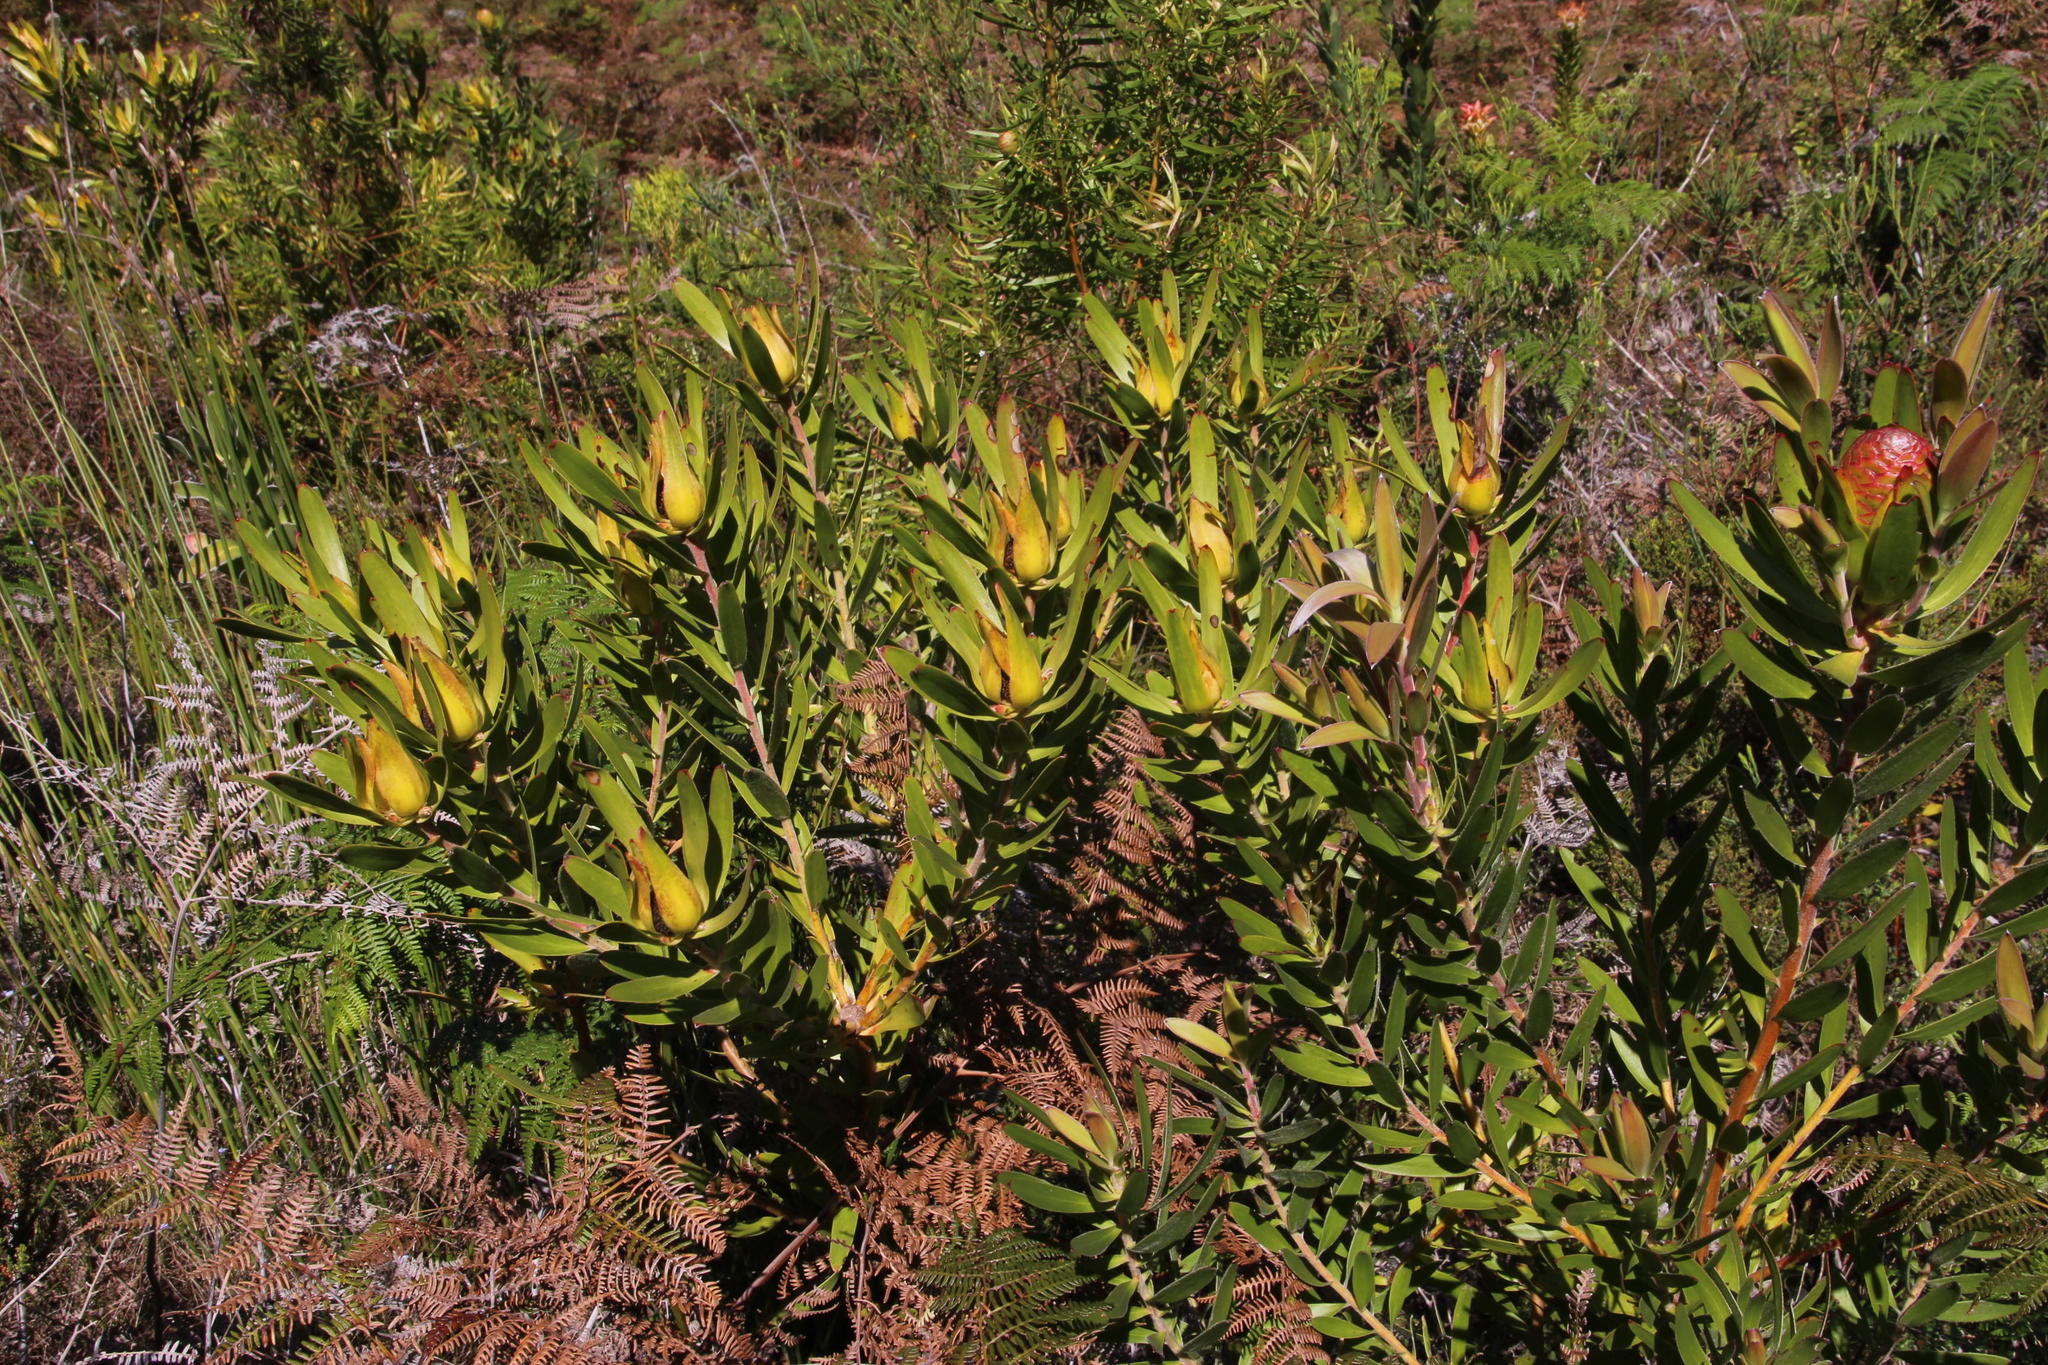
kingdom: Plantae
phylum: Tracheophyta
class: Magnoliopsida
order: Proteales
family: Proteaceae
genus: Leucadendron
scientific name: Leucadendron laureolum
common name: Golden sunshinebush
